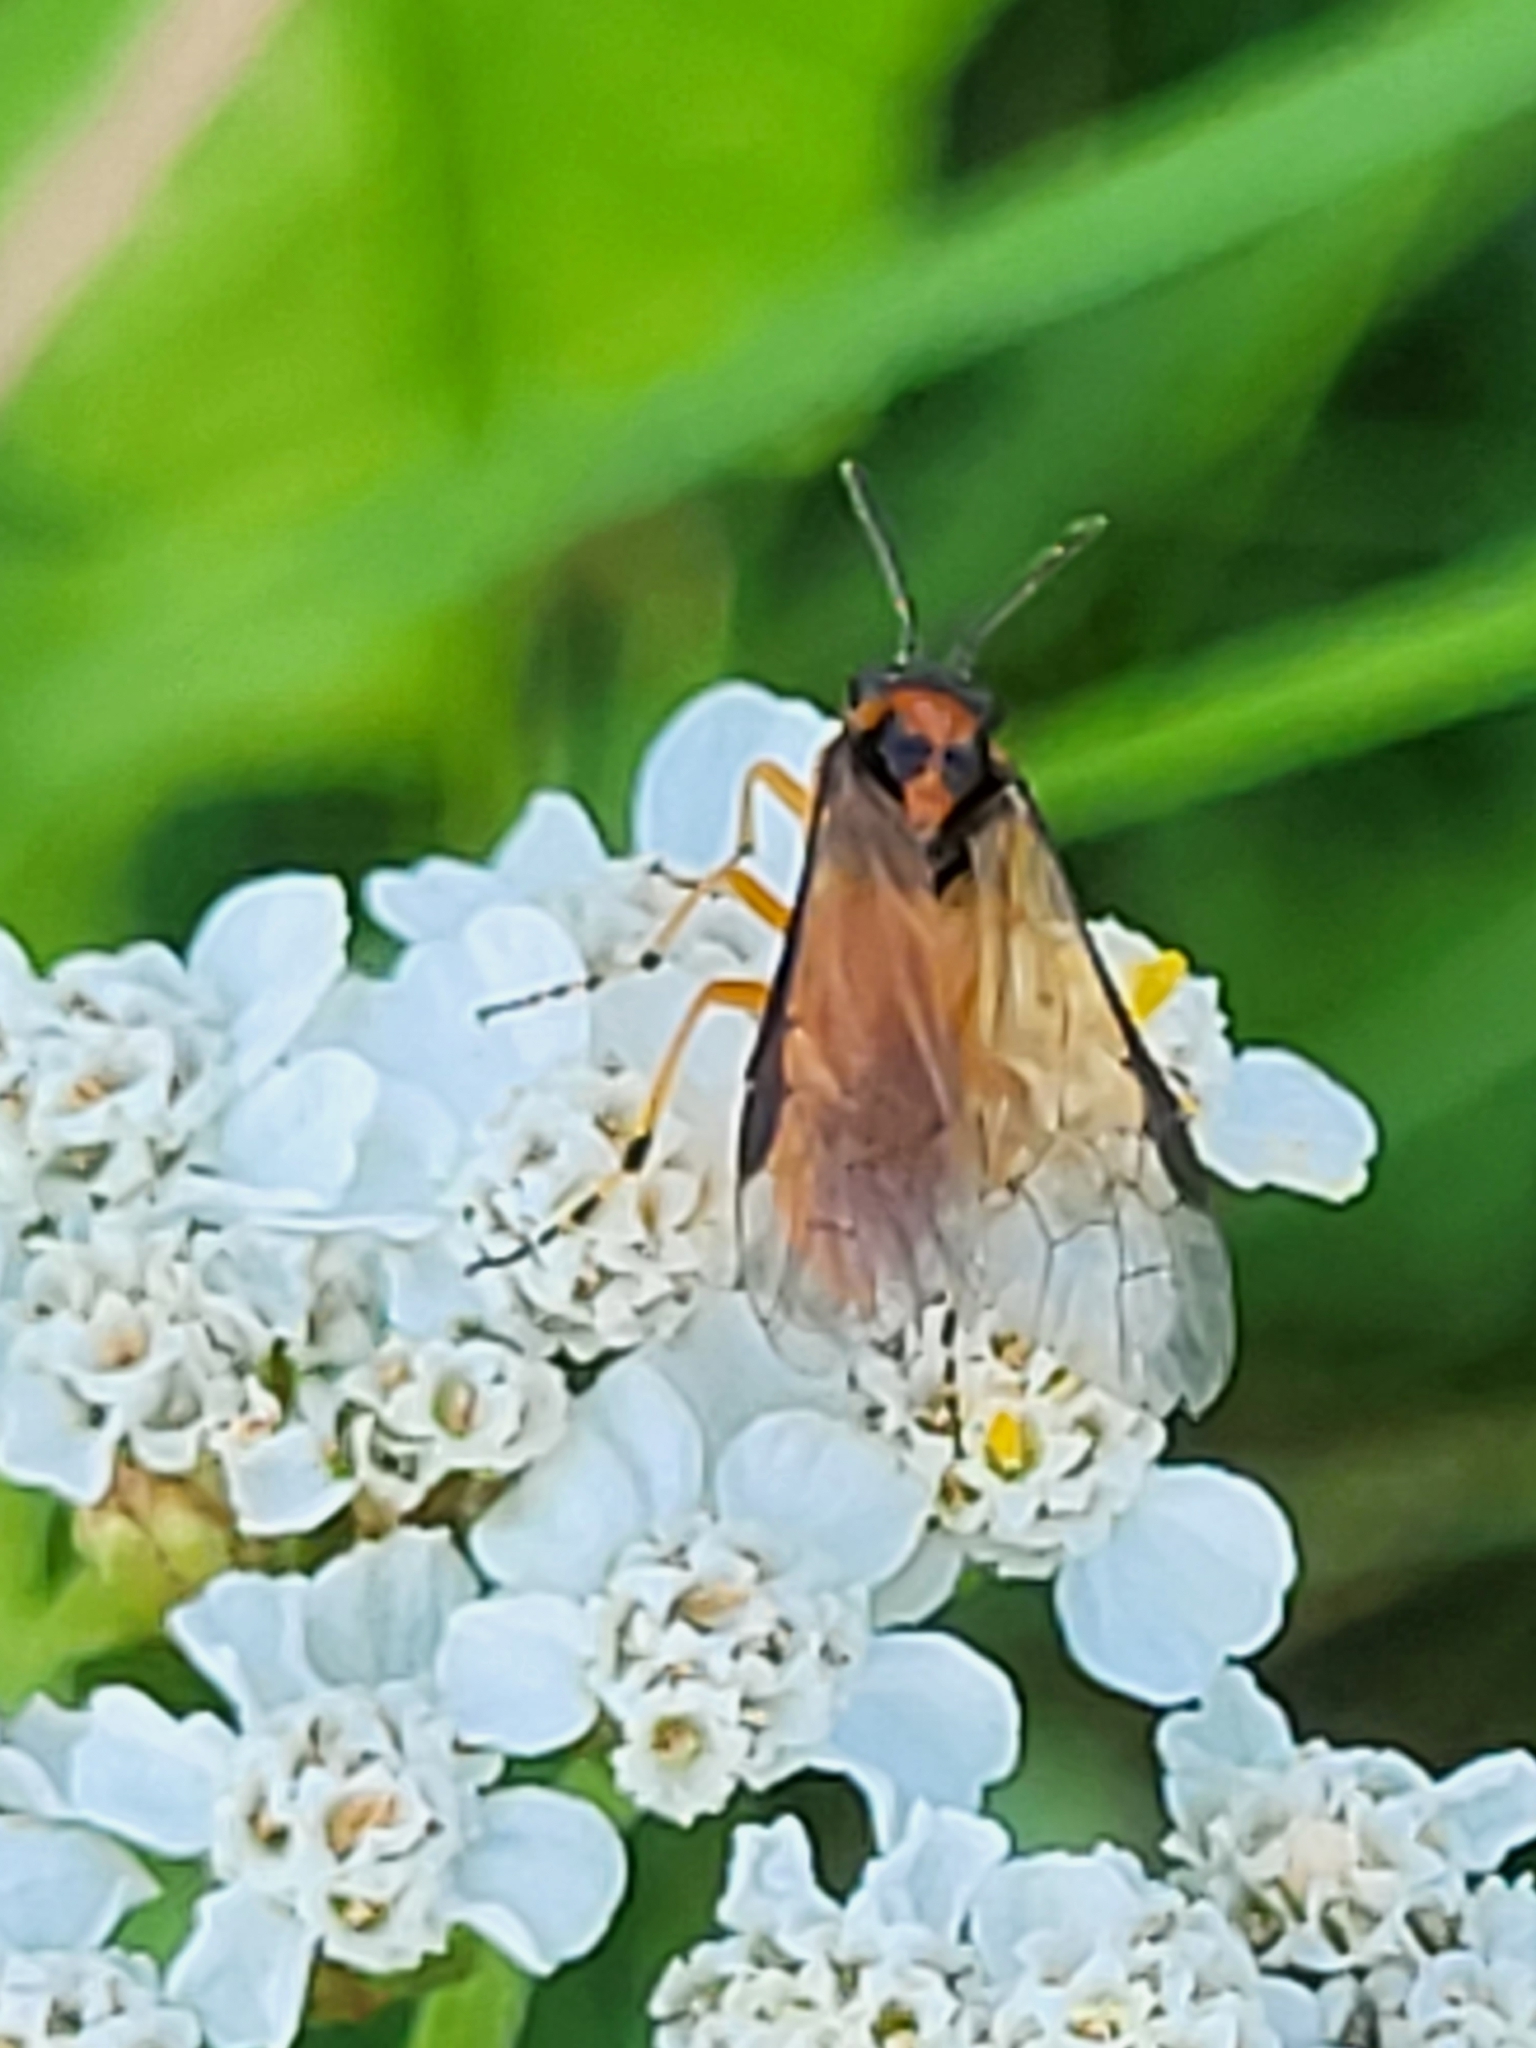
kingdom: Animalia
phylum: Arthropoda
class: Insecta
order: Hymenoptera
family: Tenthredinidae
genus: Athalia
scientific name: Athalia rosae
